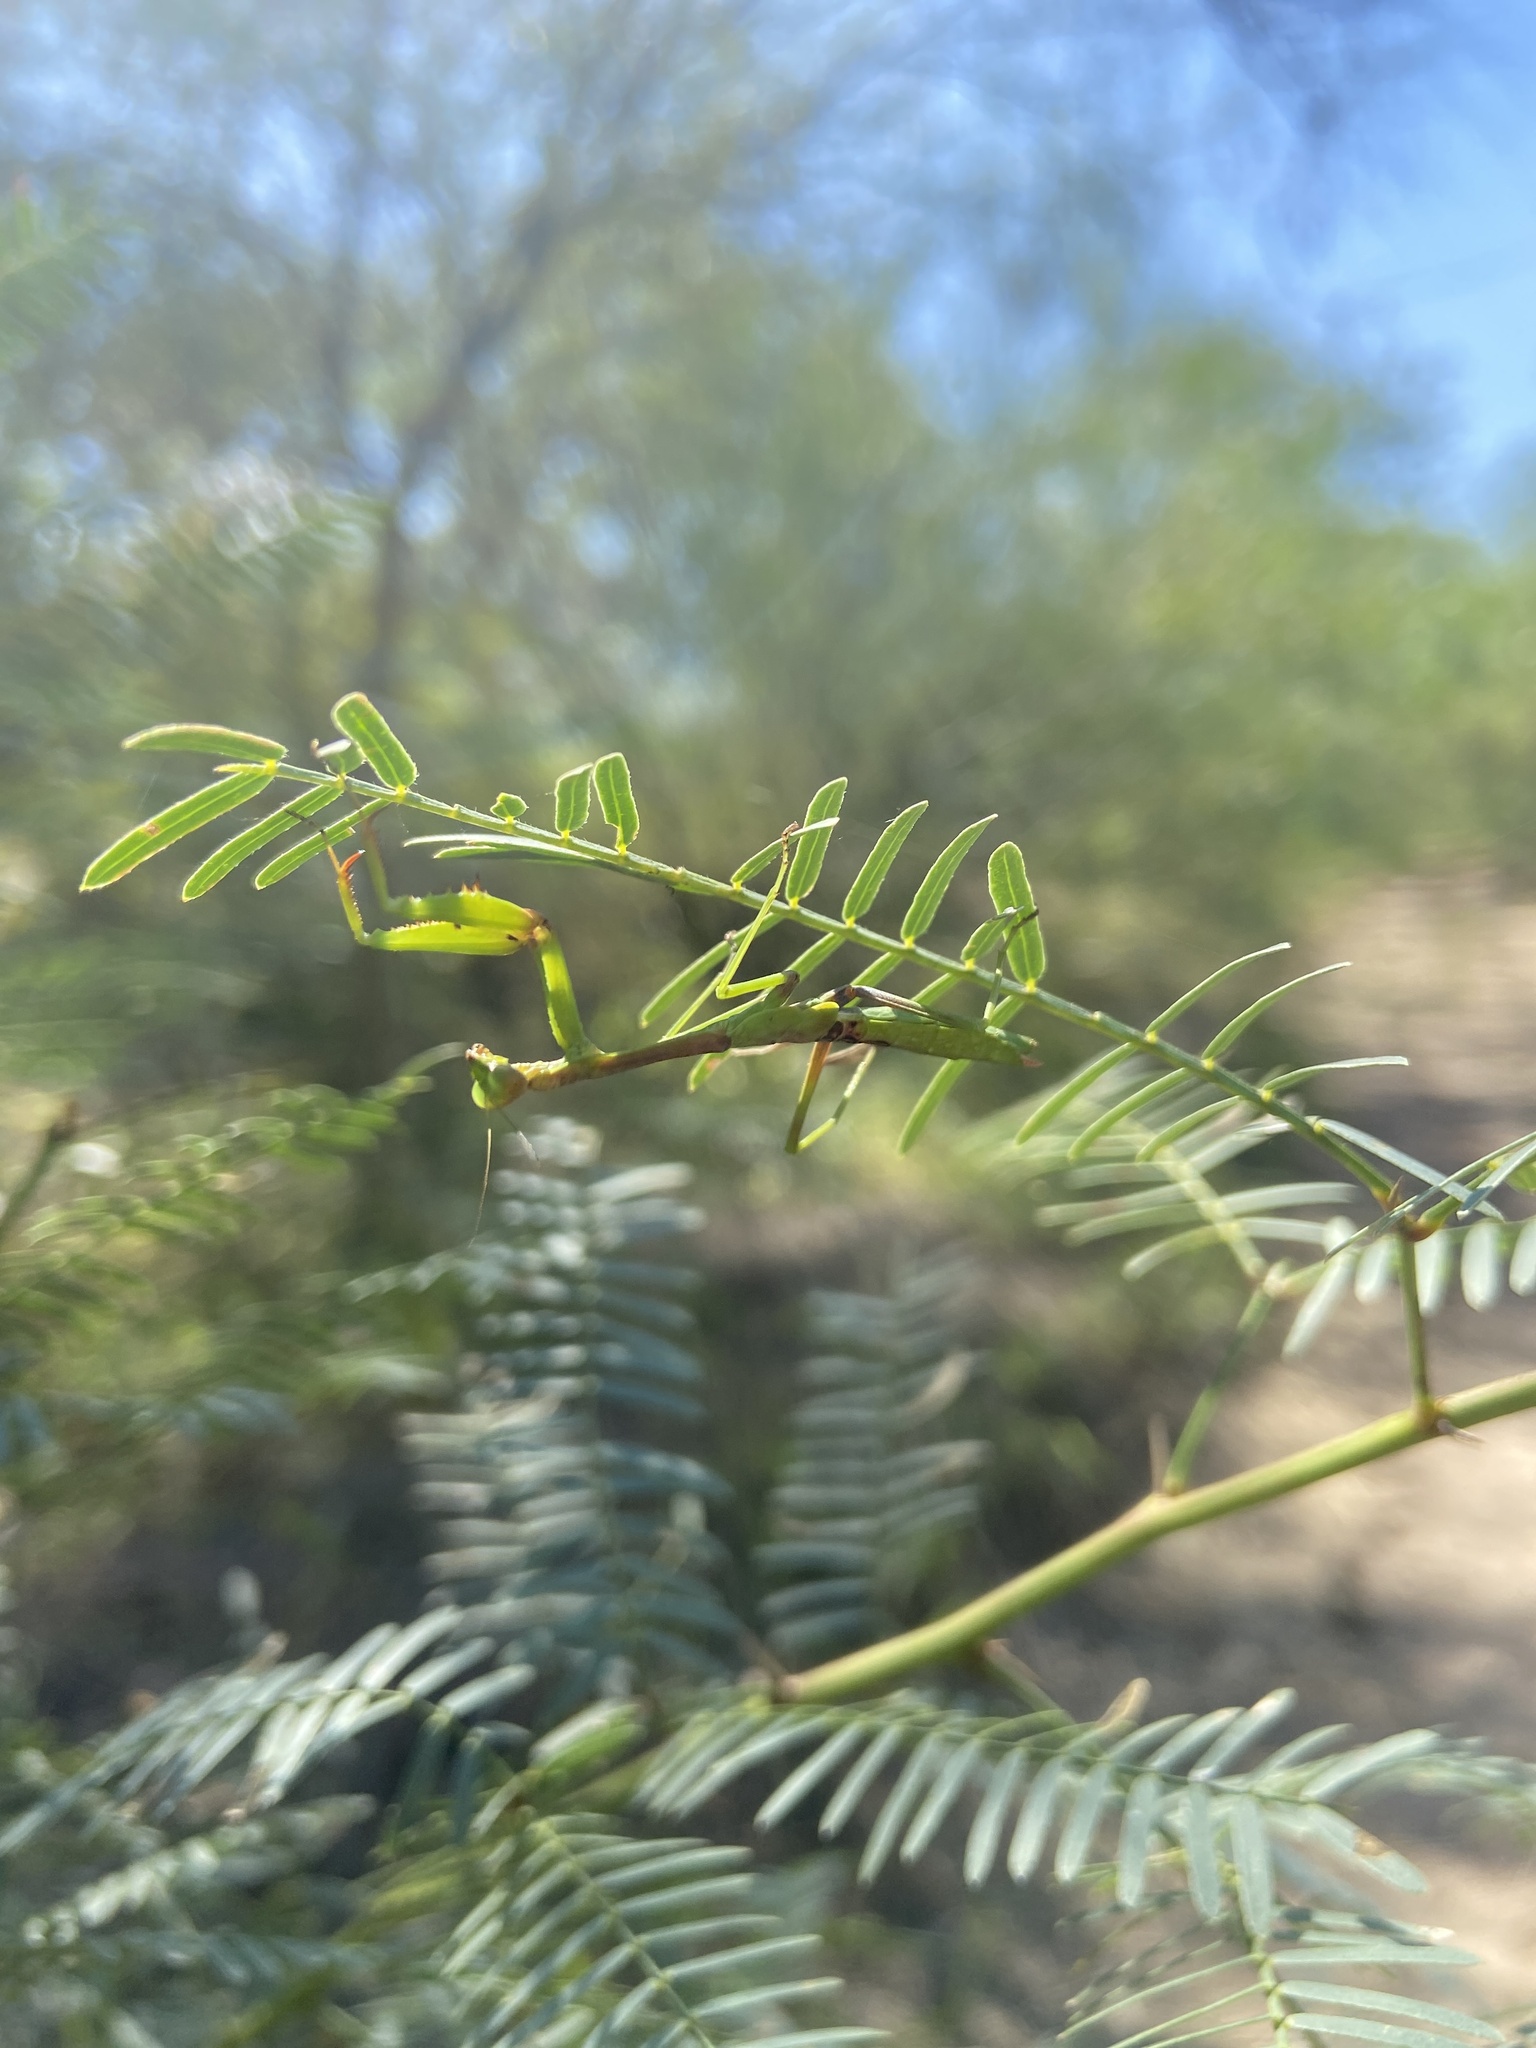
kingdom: Animalia
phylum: Arthropoda
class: Insecta
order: Mantodea
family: Mantidae
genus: Stagmomantis
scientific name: Stagmomantis resacae
